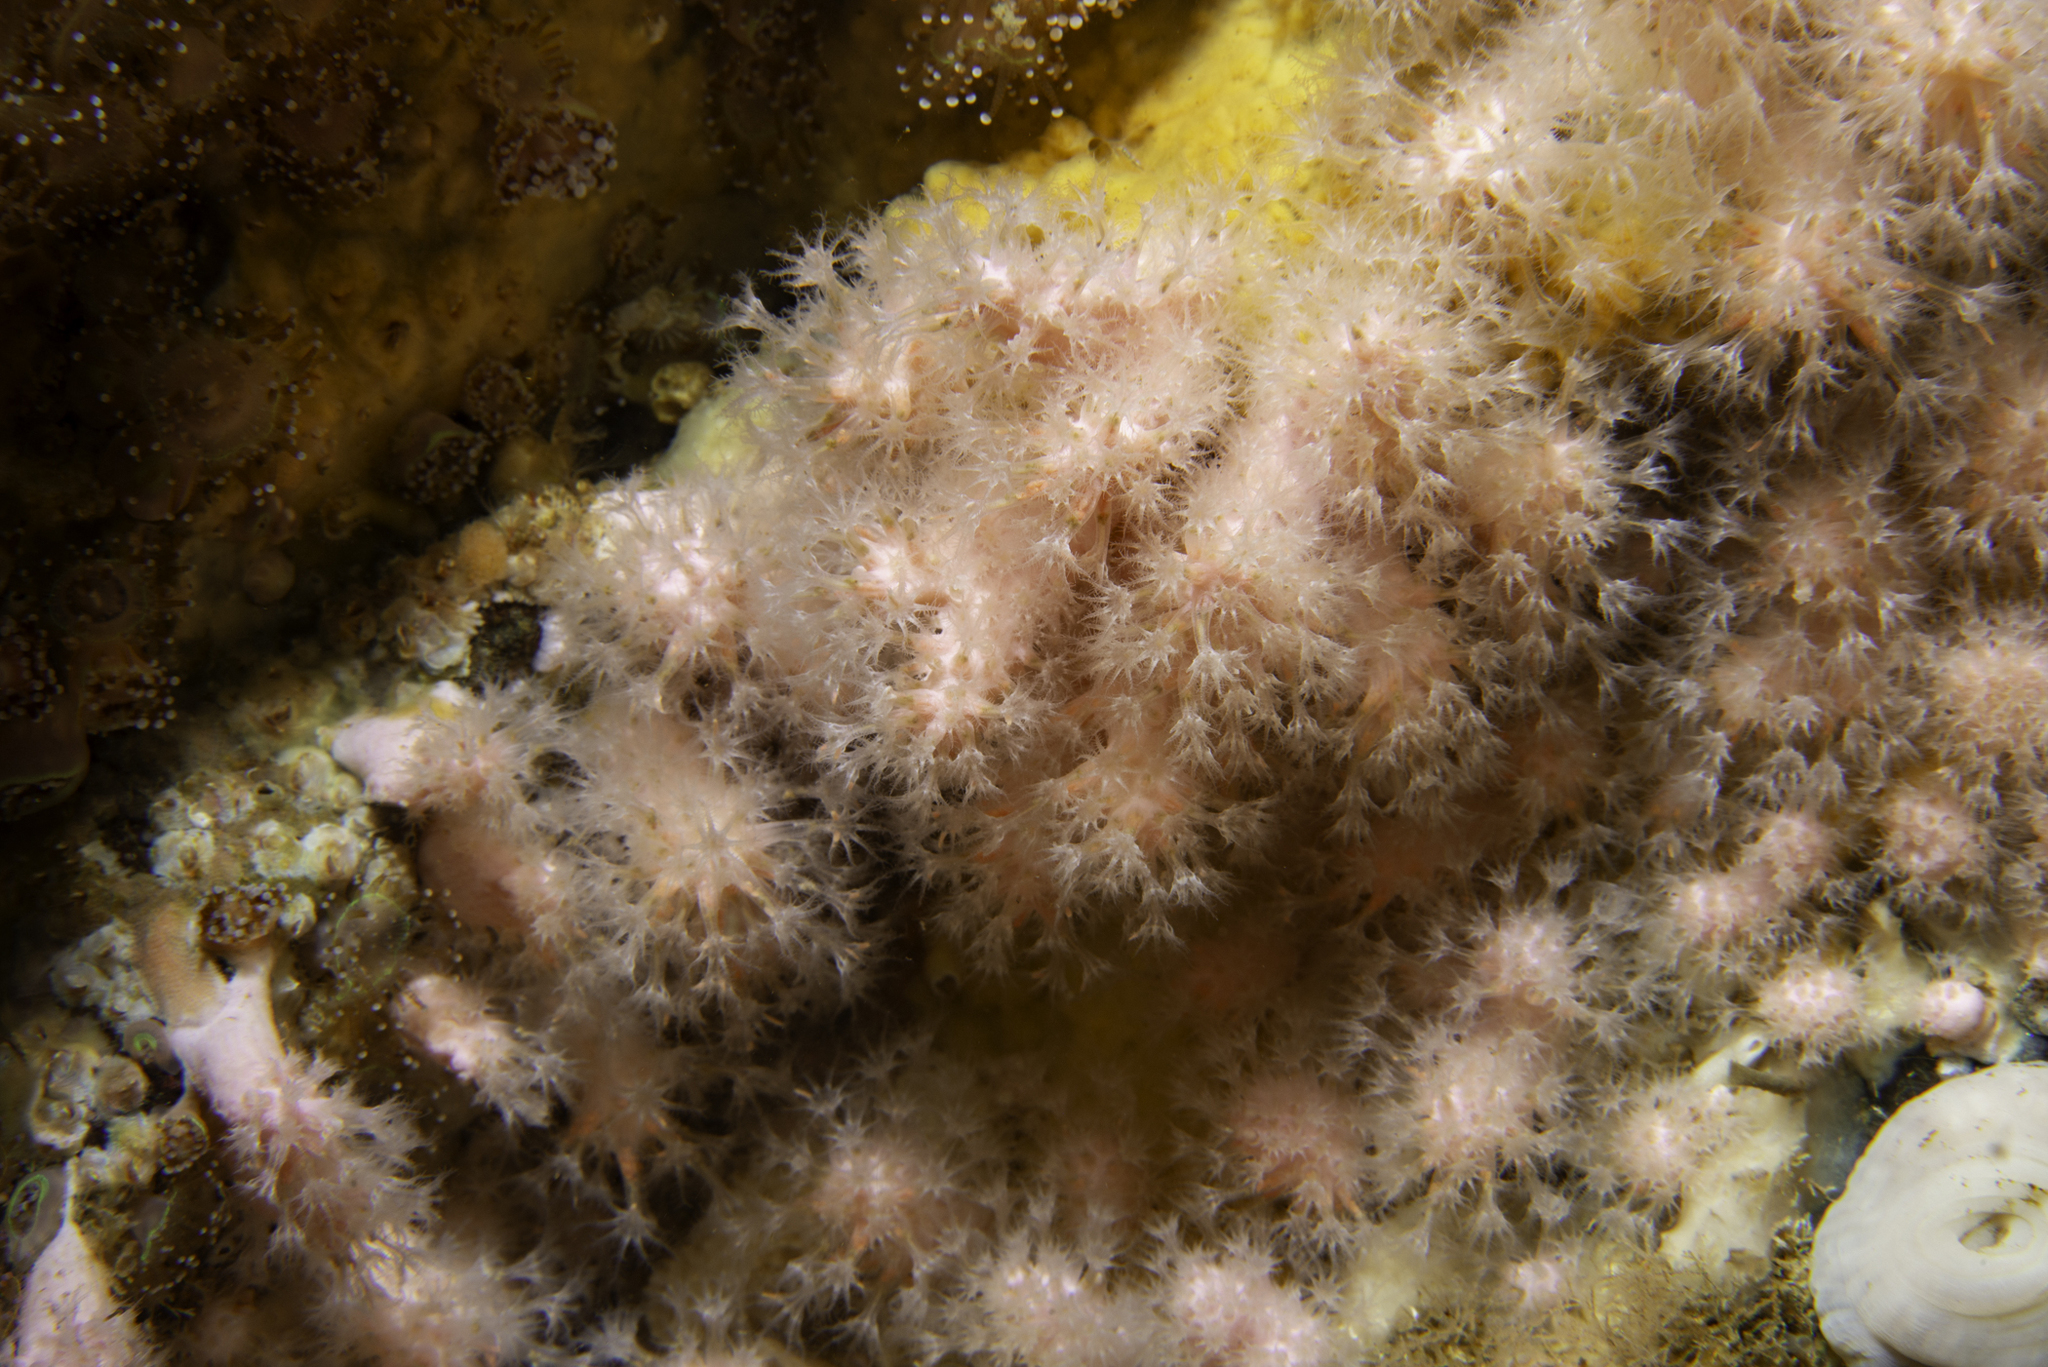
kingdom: Animalia
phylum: Cnidaria
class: Anthozoa
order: Malacalcyonacea
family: Alcyoniidae
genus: Alcyonium
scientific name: Alcyonium hibernicum
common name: Pink sea fingers
